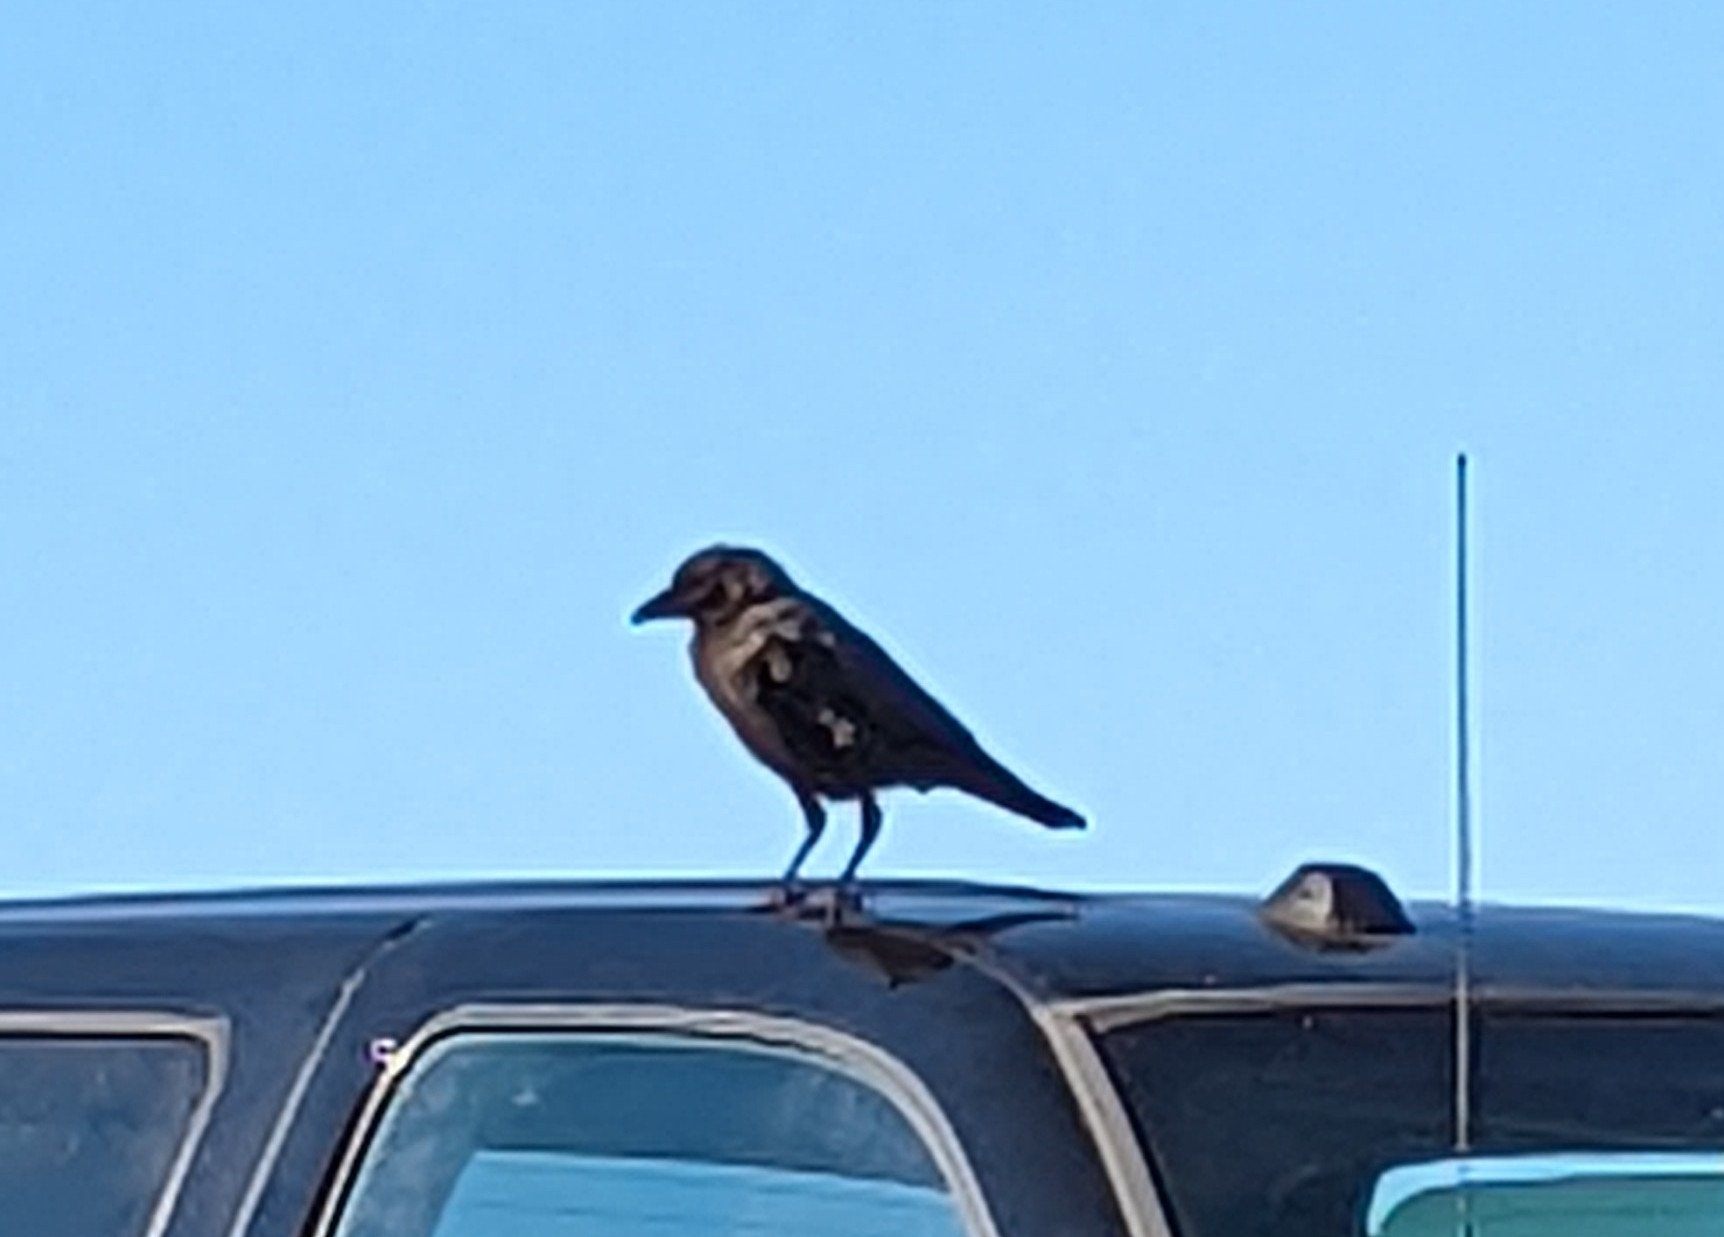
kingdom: Animalia
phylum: Chordata
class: Aves
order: Passeriformes
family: Corvidae
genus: Corvus
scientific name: Corvus brachyrhynchos
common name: American crow
